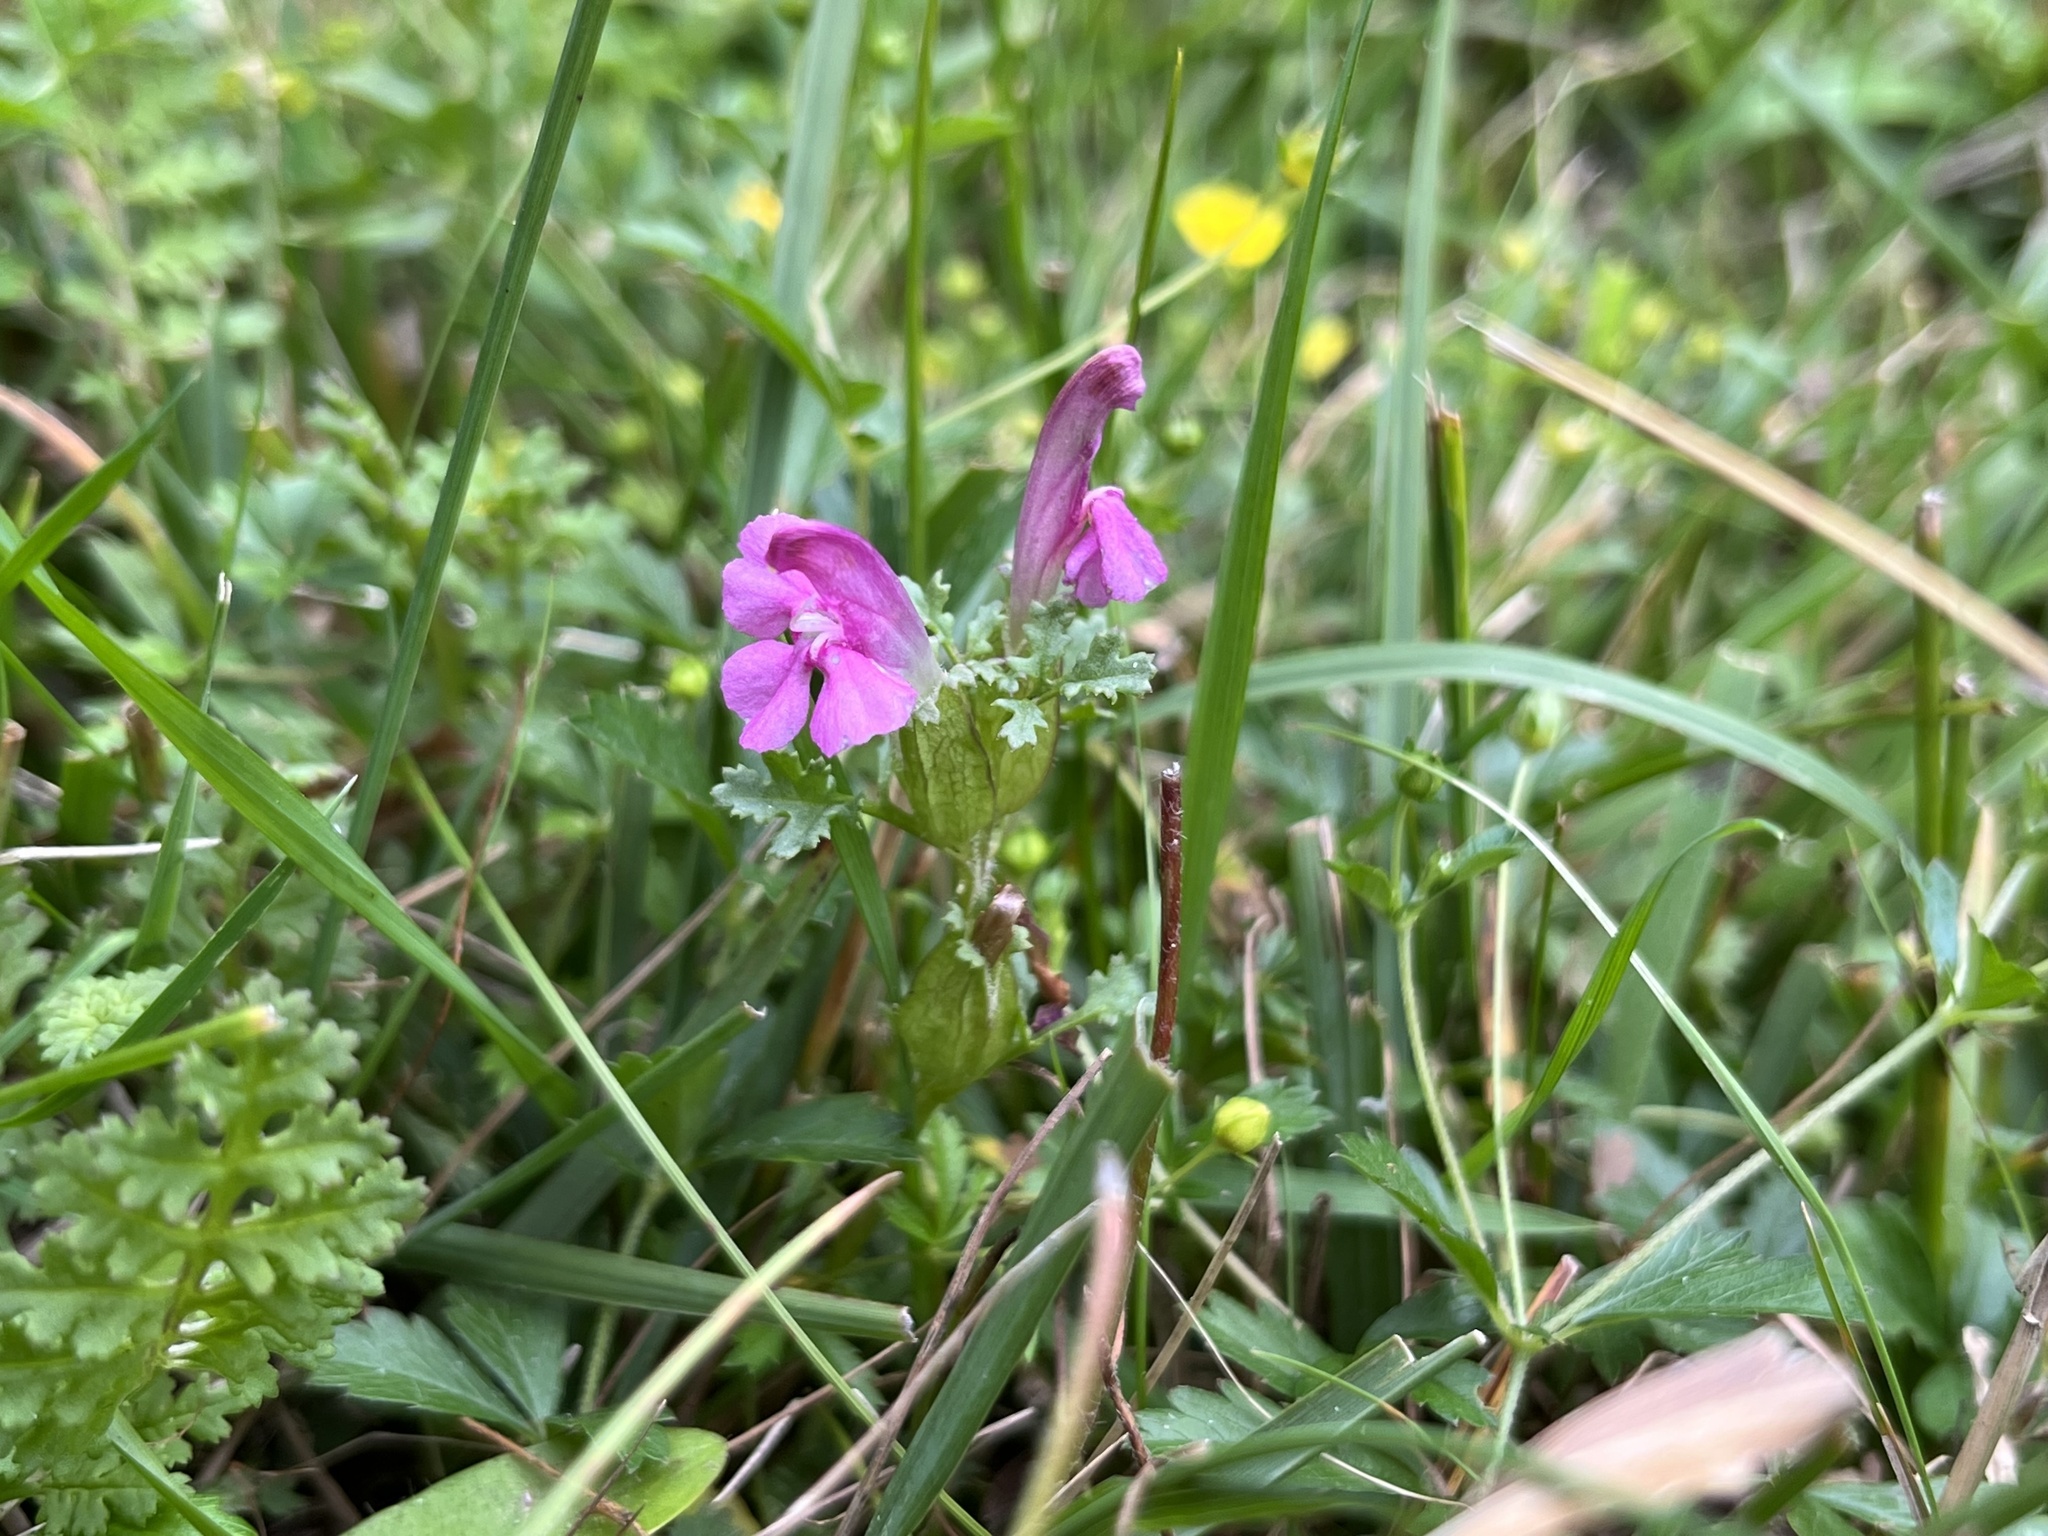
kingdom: Plantae
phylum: Tracheophyta
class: Magnoliopsida
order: Lamiales
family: Orobanchaceae
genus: Pedicularis
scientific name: Pedicularis sylvatica
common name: Lousewort
